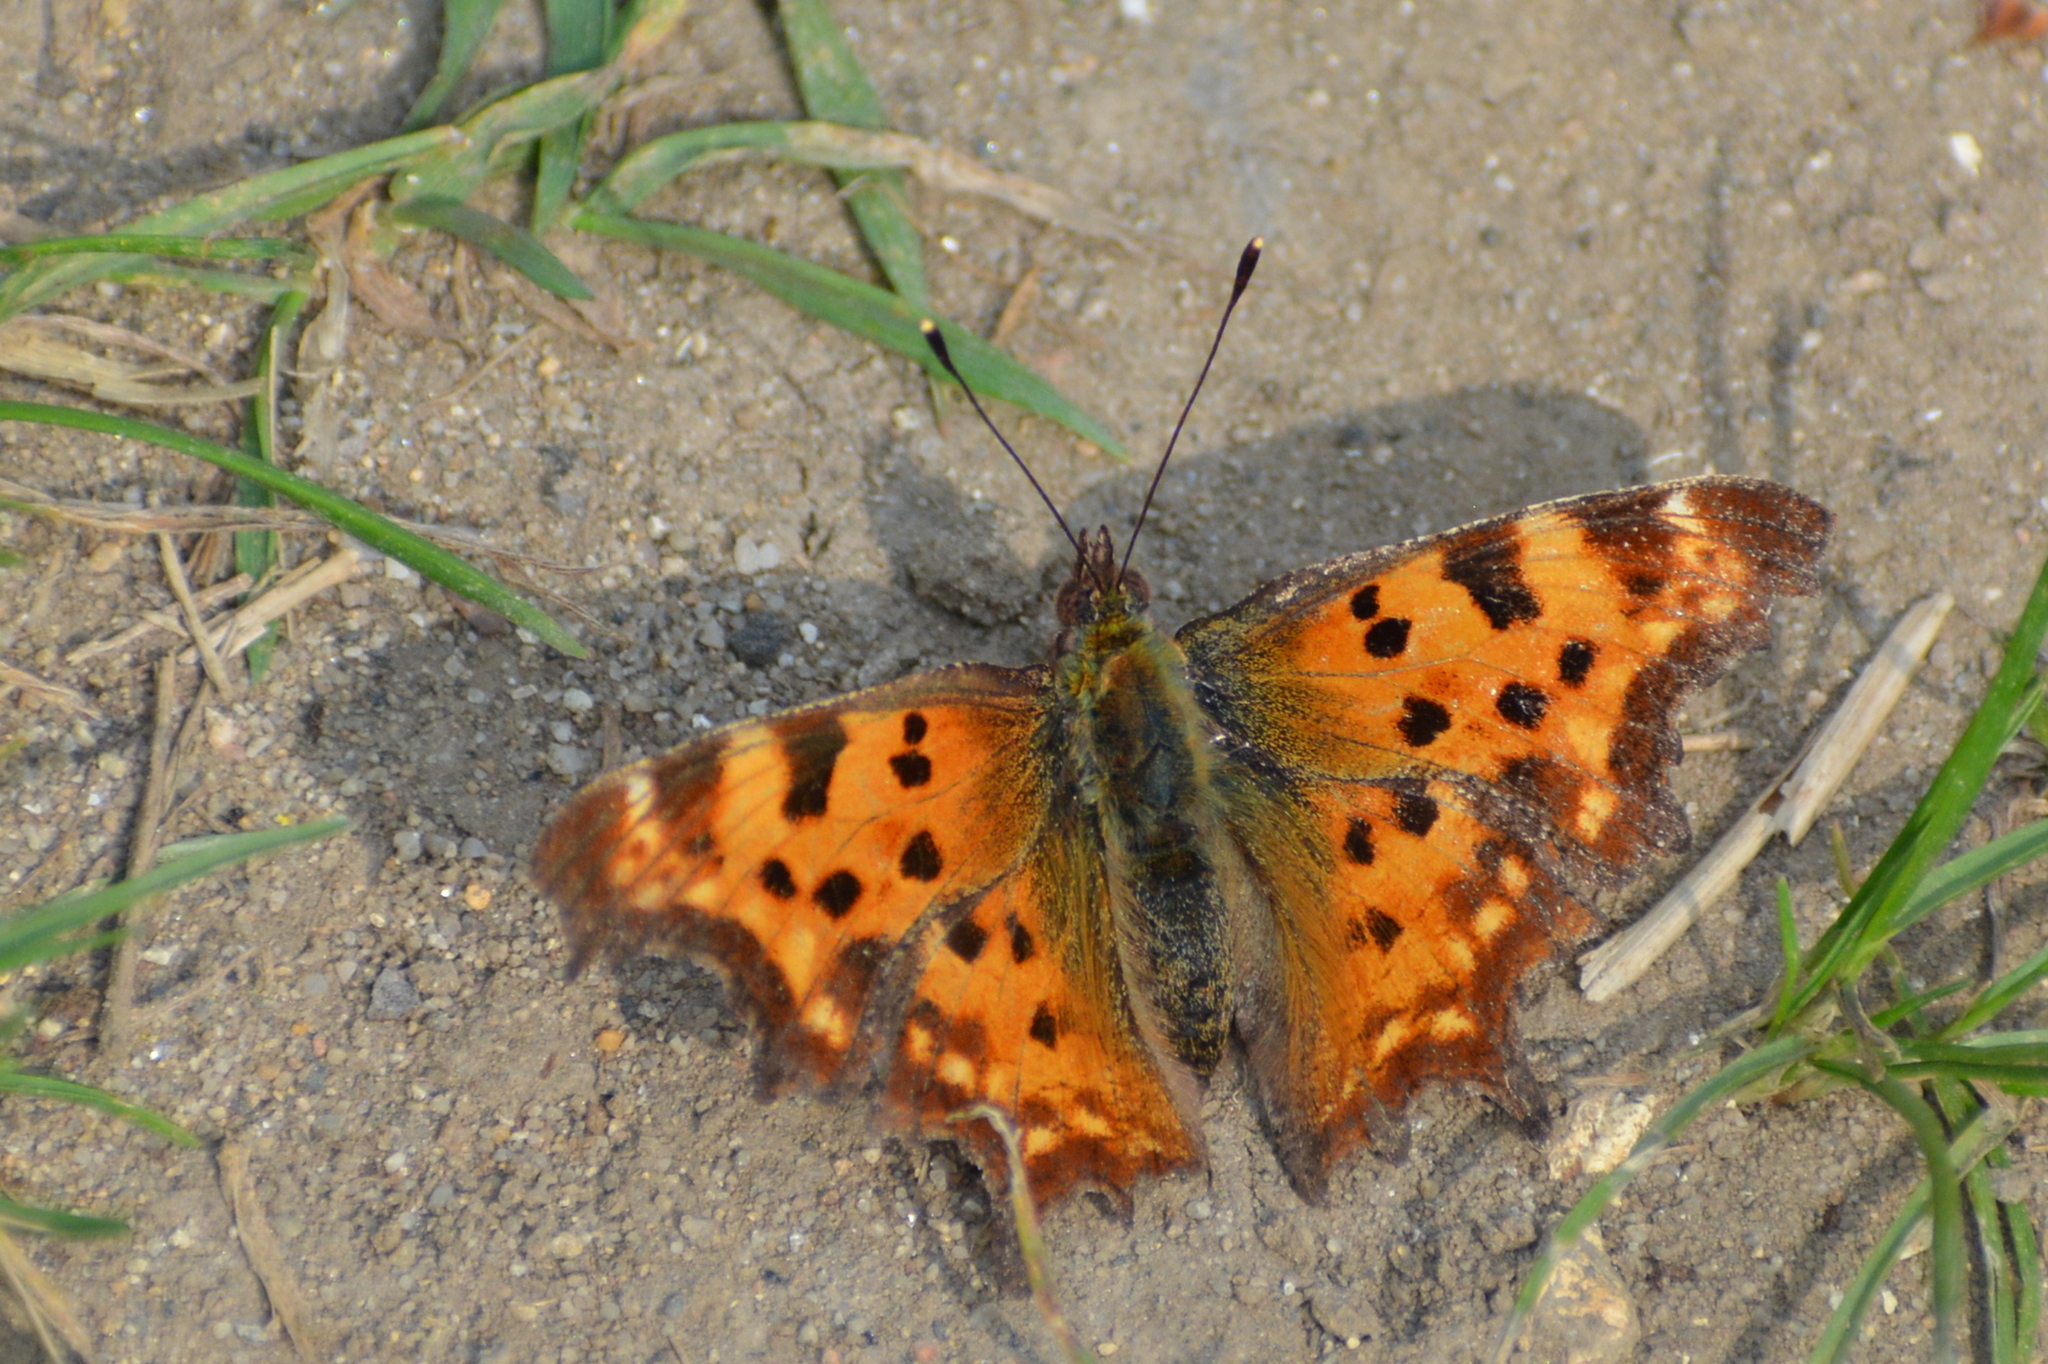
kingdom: Animalia
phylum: Arthropoda
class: Insecta
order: Lepidoptera
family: Nymphalidae
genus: Polygonia
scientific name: Polygonia c-album
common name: Comma
